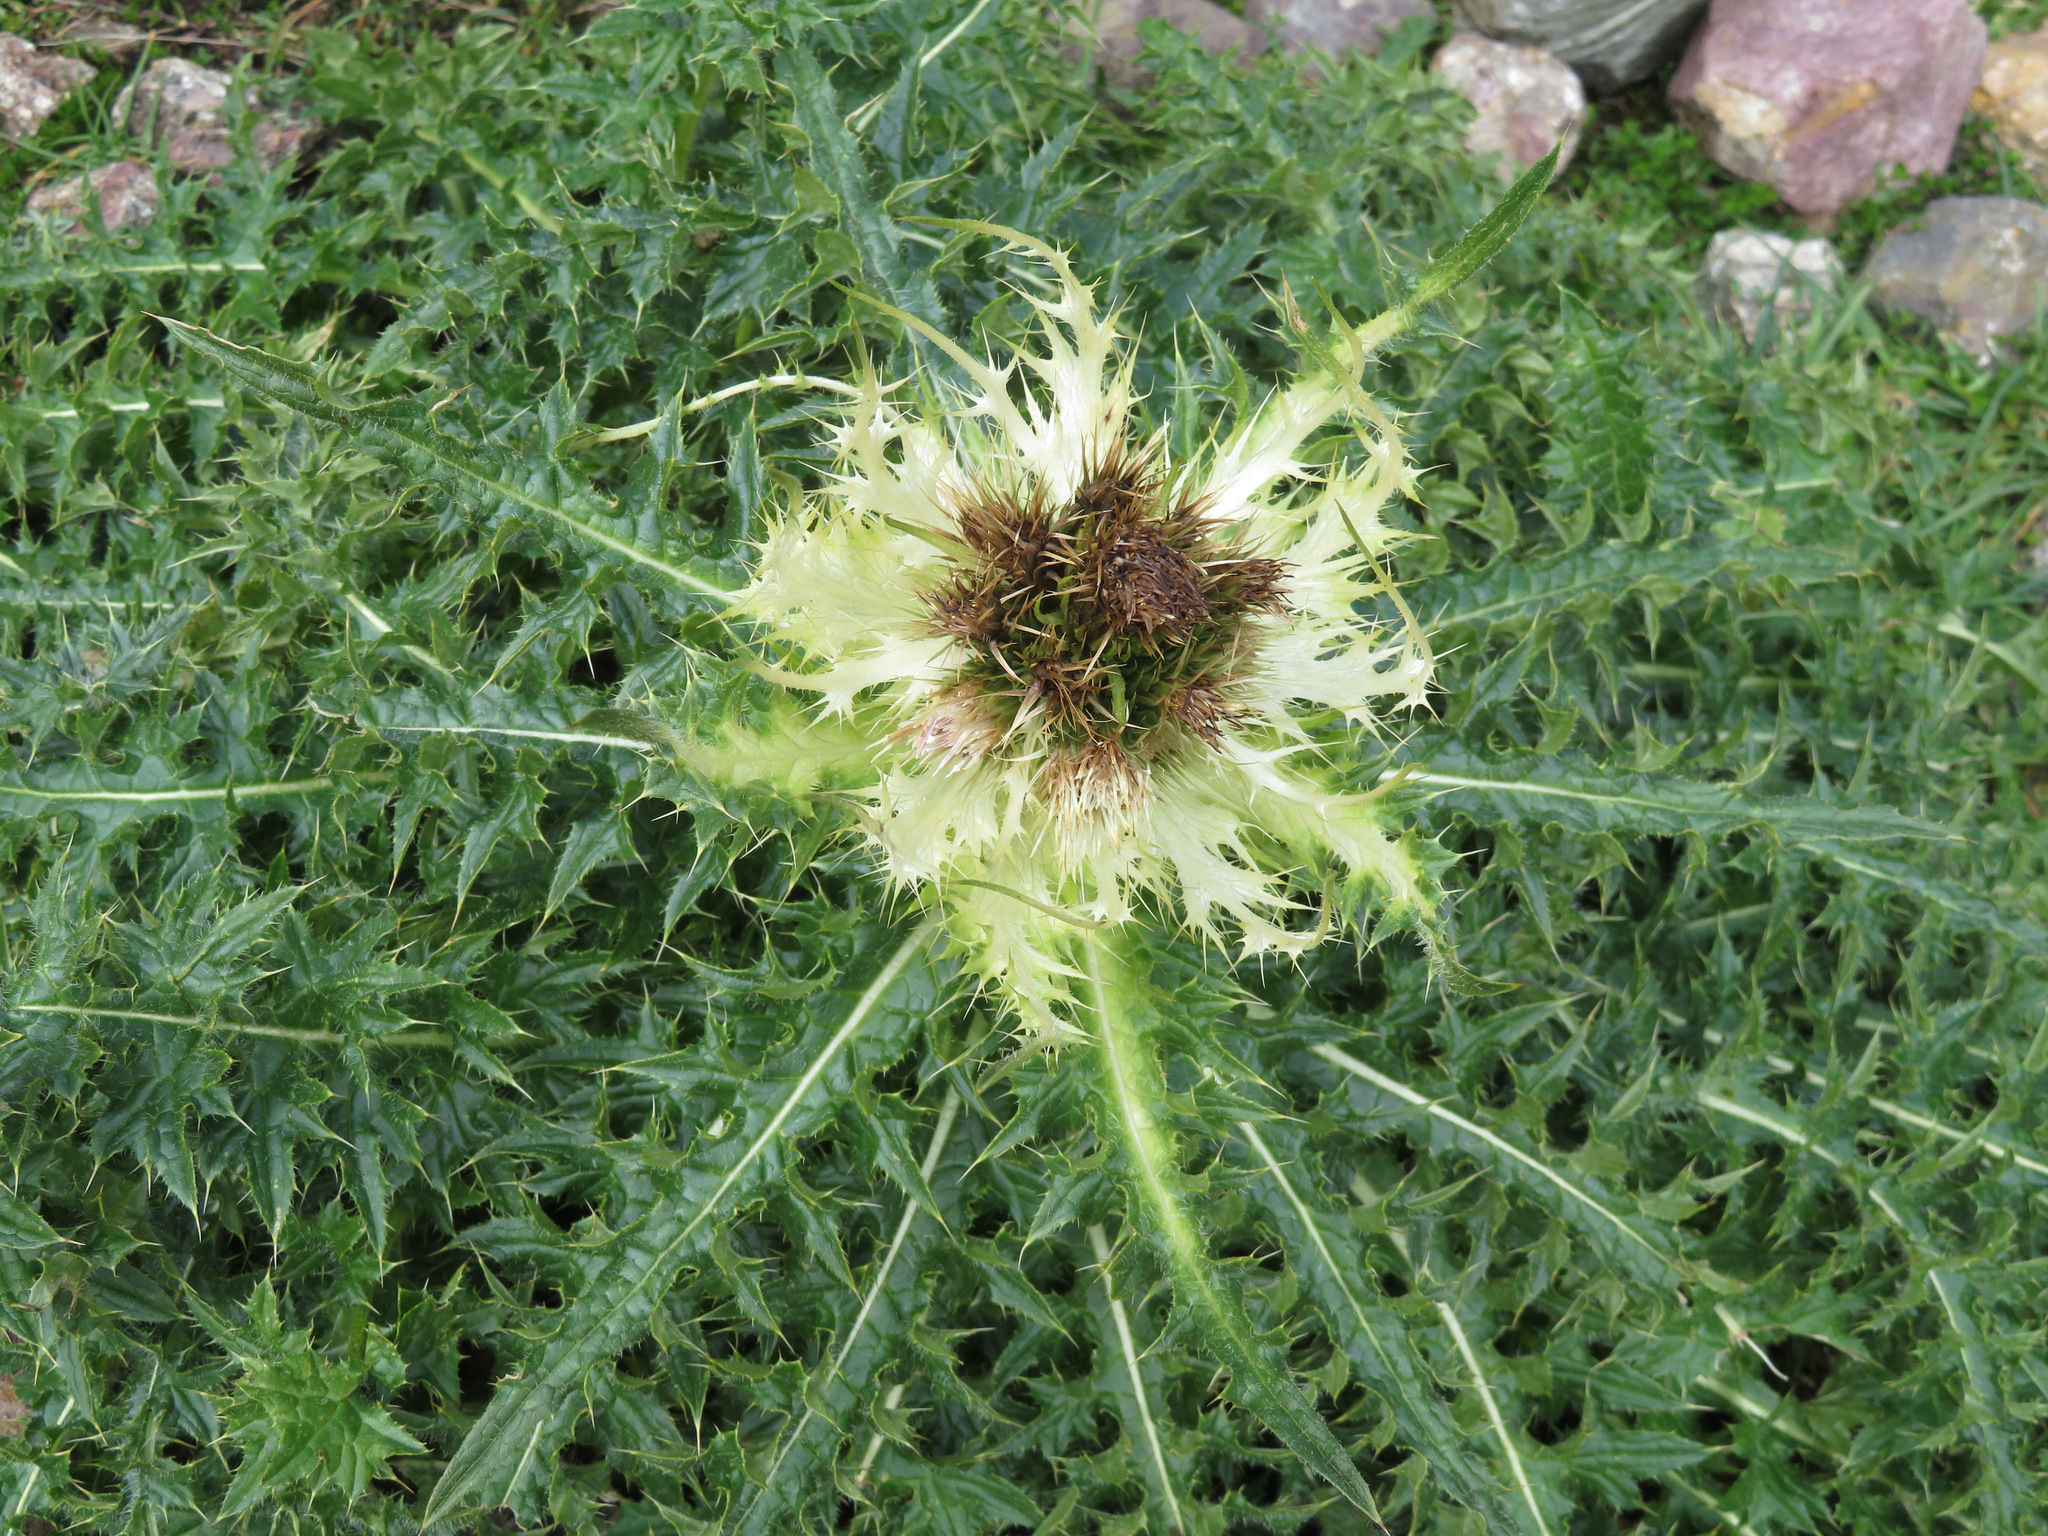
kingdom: Plantae
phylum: Tracheophyta
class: Magnoliopsida
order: Asterales
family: Asteraceae
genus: Cirsium
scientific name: Cirsium spinosissimum
